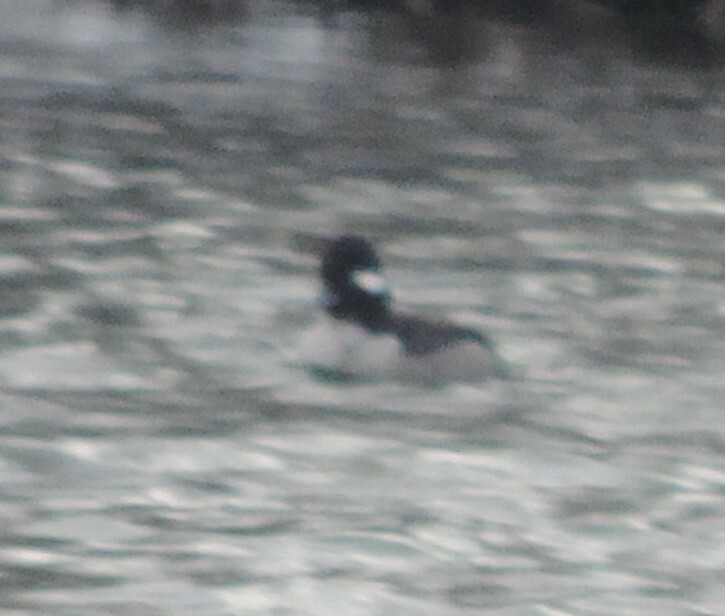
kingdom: Animalia
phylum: Chordata
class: Aves
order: Anseriformes
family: Anatidae
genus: Bucephala
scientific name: Bucephala albeola
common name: Bufflehead
